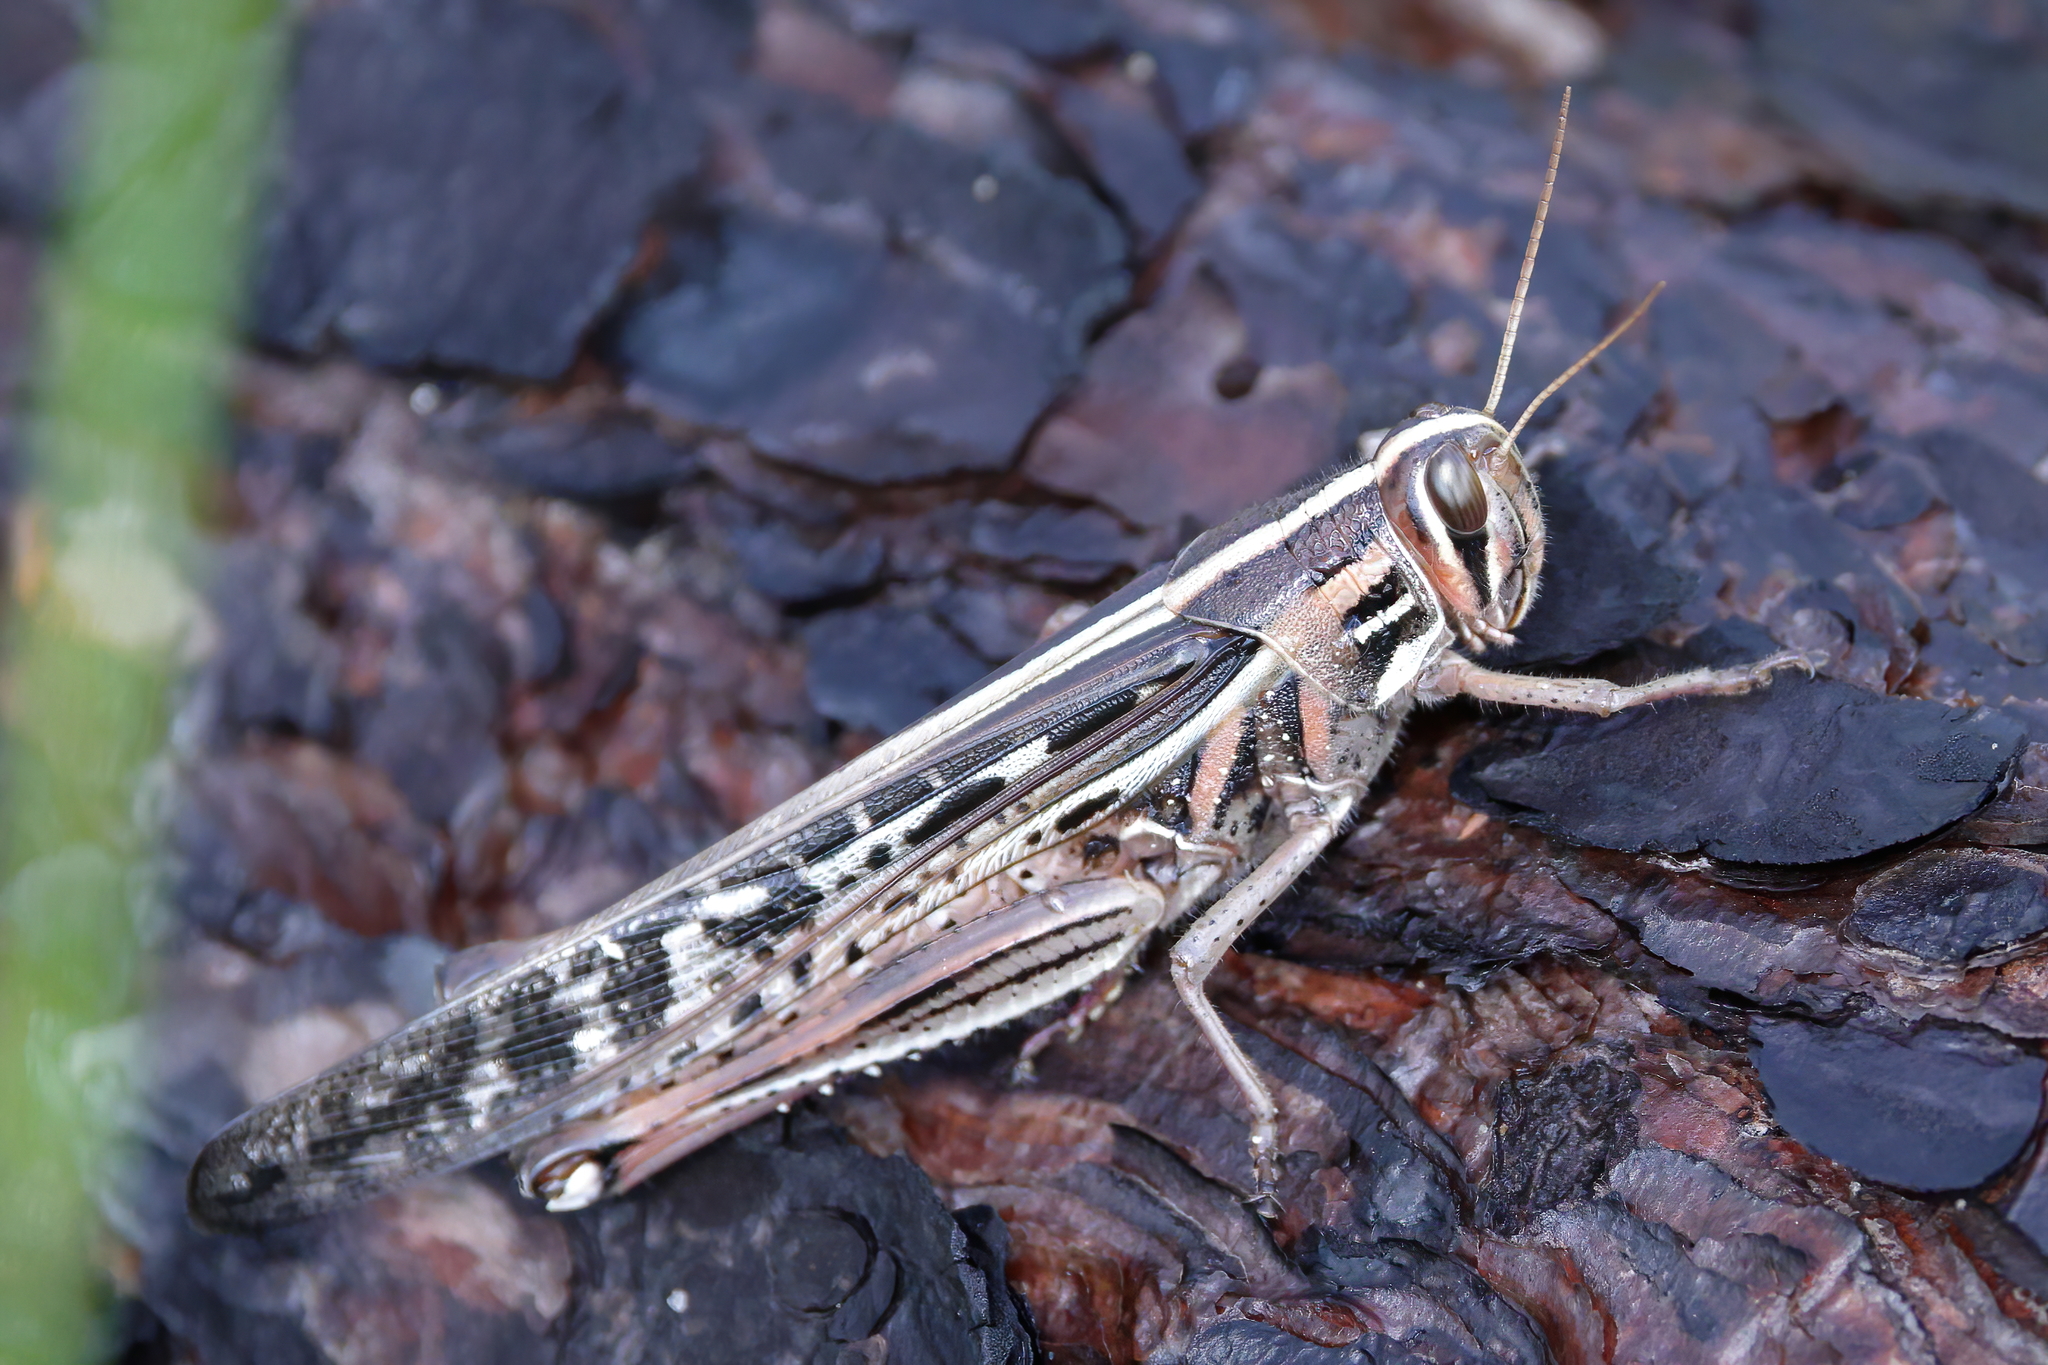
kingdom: Animalia
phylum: Arthropoda
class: Insecta
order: Orthoptera
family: Acrididae
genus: Schistocerca
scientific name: Schistocerca americana
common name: American bird locust
